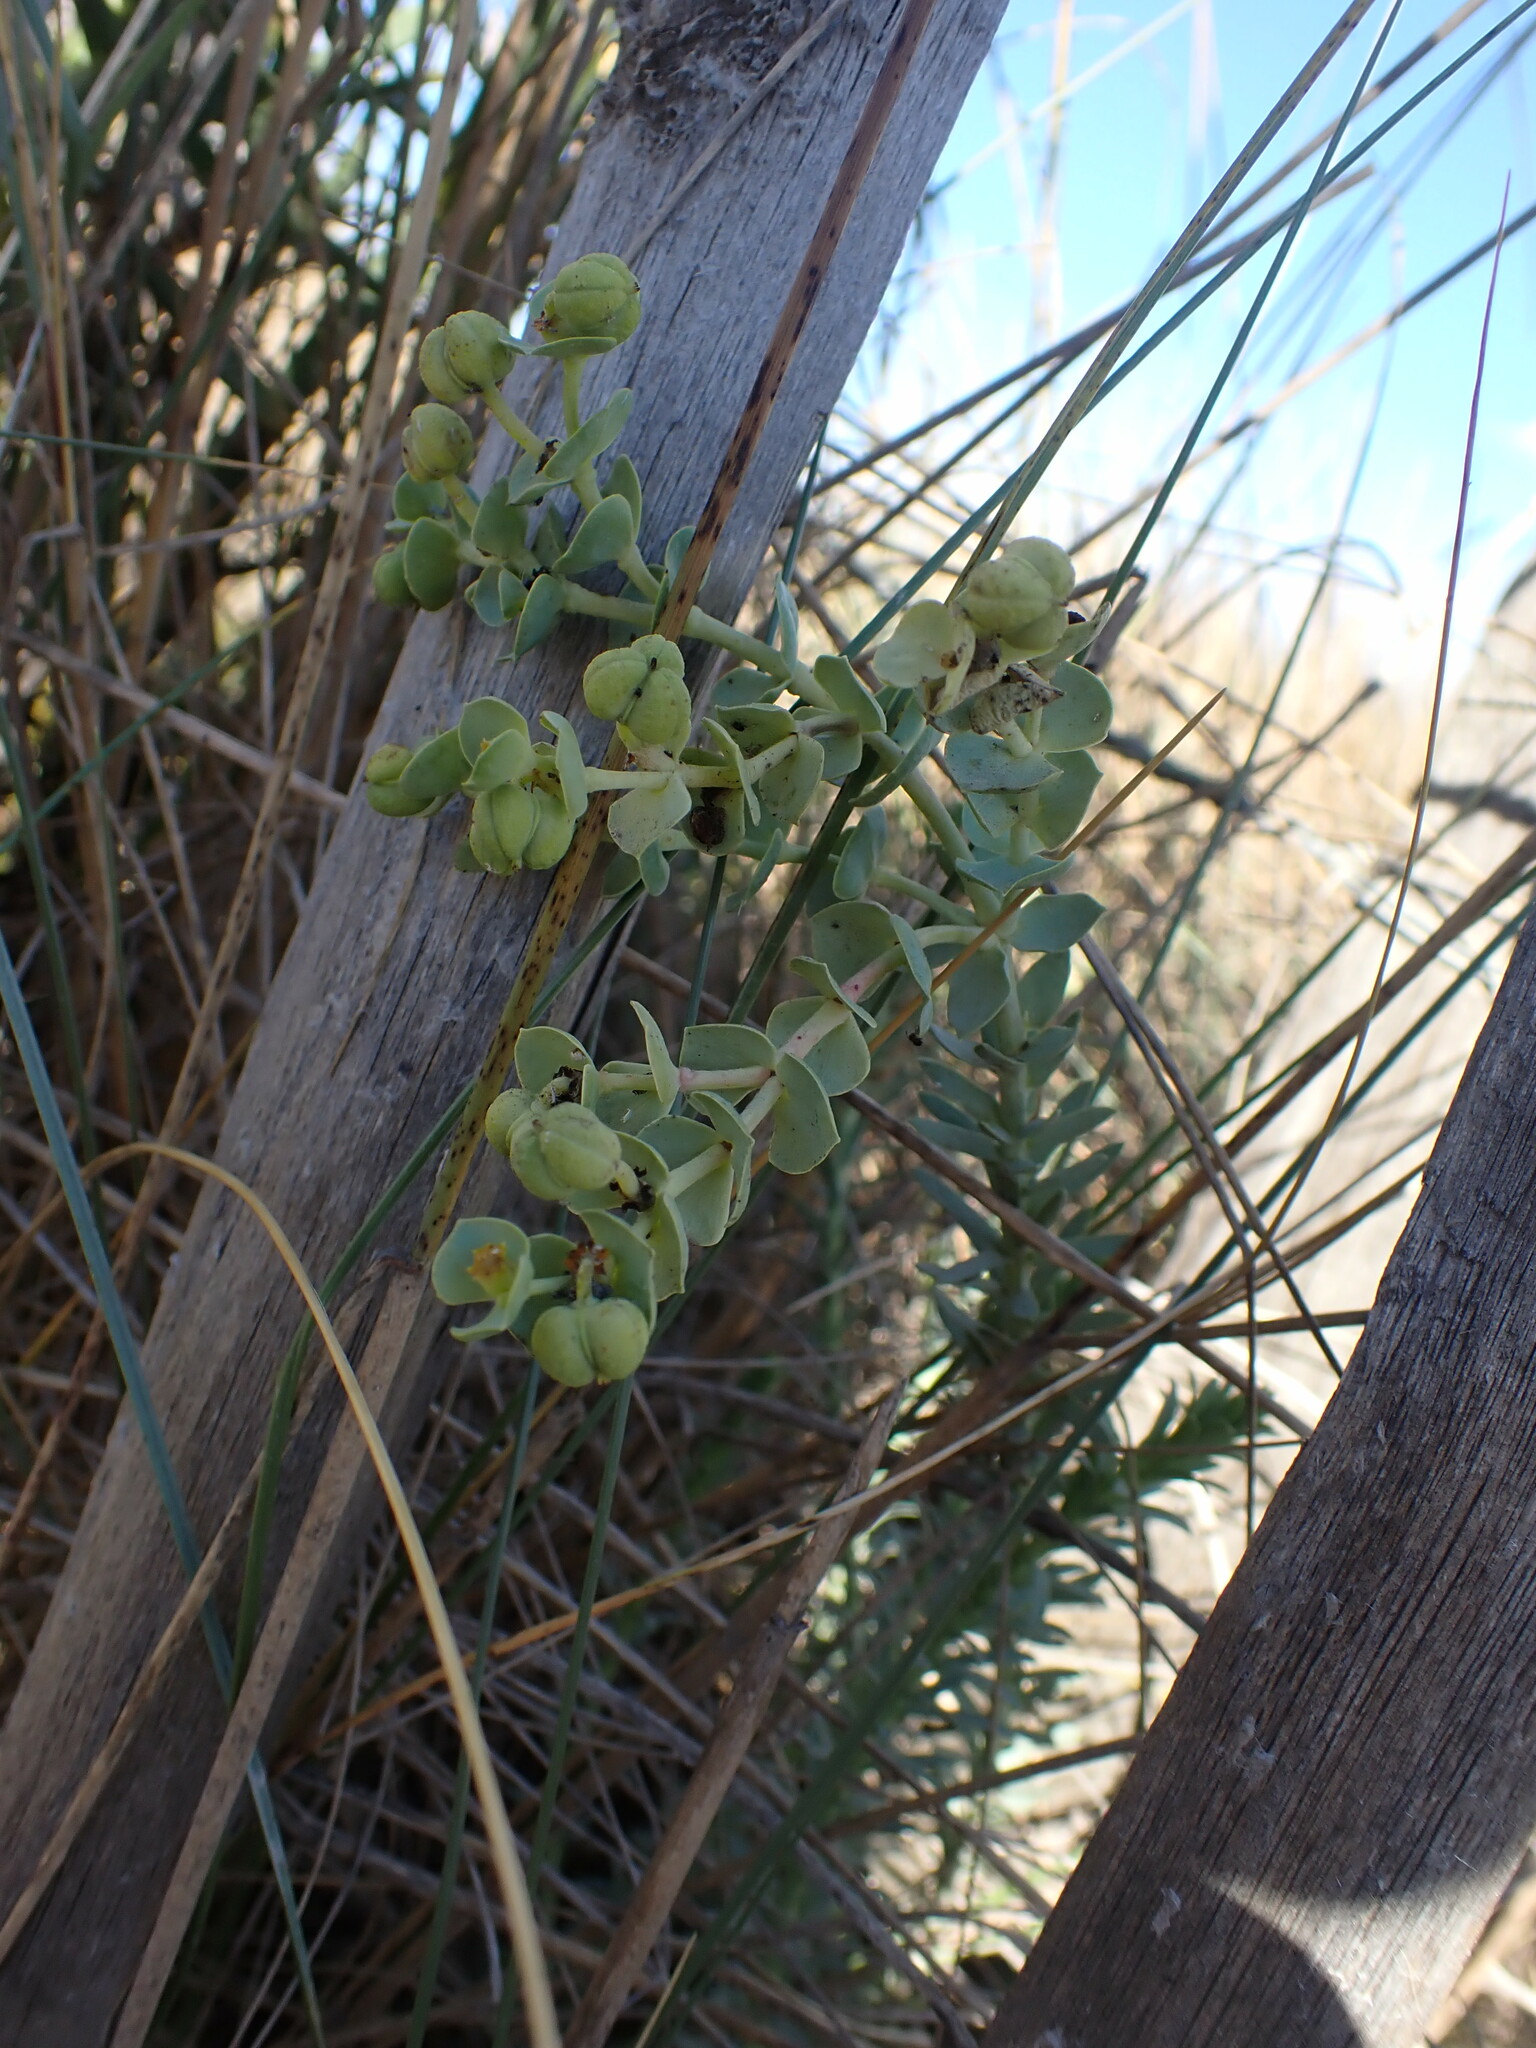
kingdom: Plantae
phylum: Tracheophyta
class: Magnoliopsida
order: Malpighiales
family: Euphorbiaceae
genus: Euphorbia
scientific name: Euphorbia paralias
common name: Sea spurge
